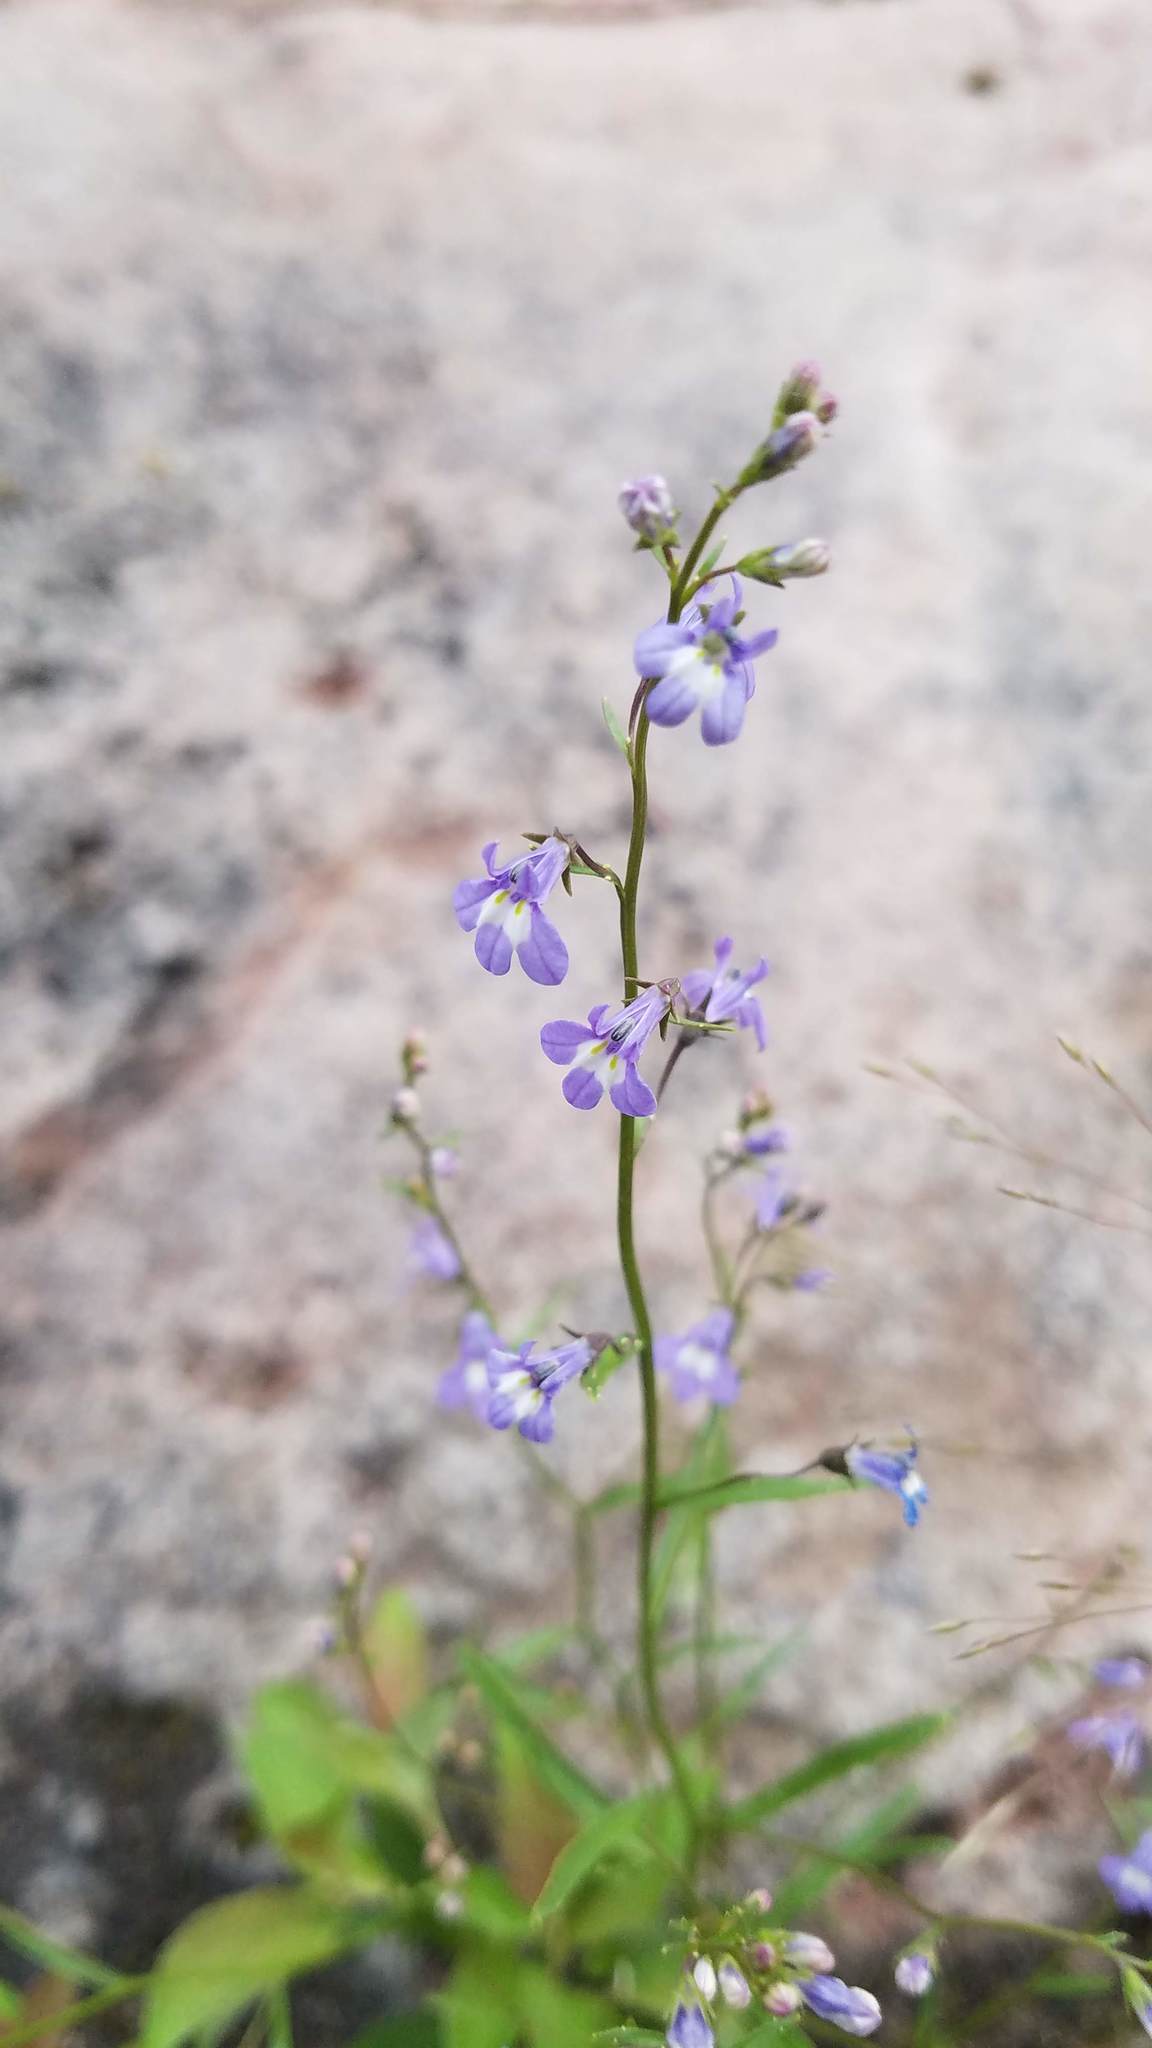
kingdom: Plantae
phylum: Tracheophyta
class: Magnoliopsida
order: Asterales
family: Campanulaceae
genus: Lobelia
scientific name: Lobelia kalmii
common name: Kalm's lobelia
